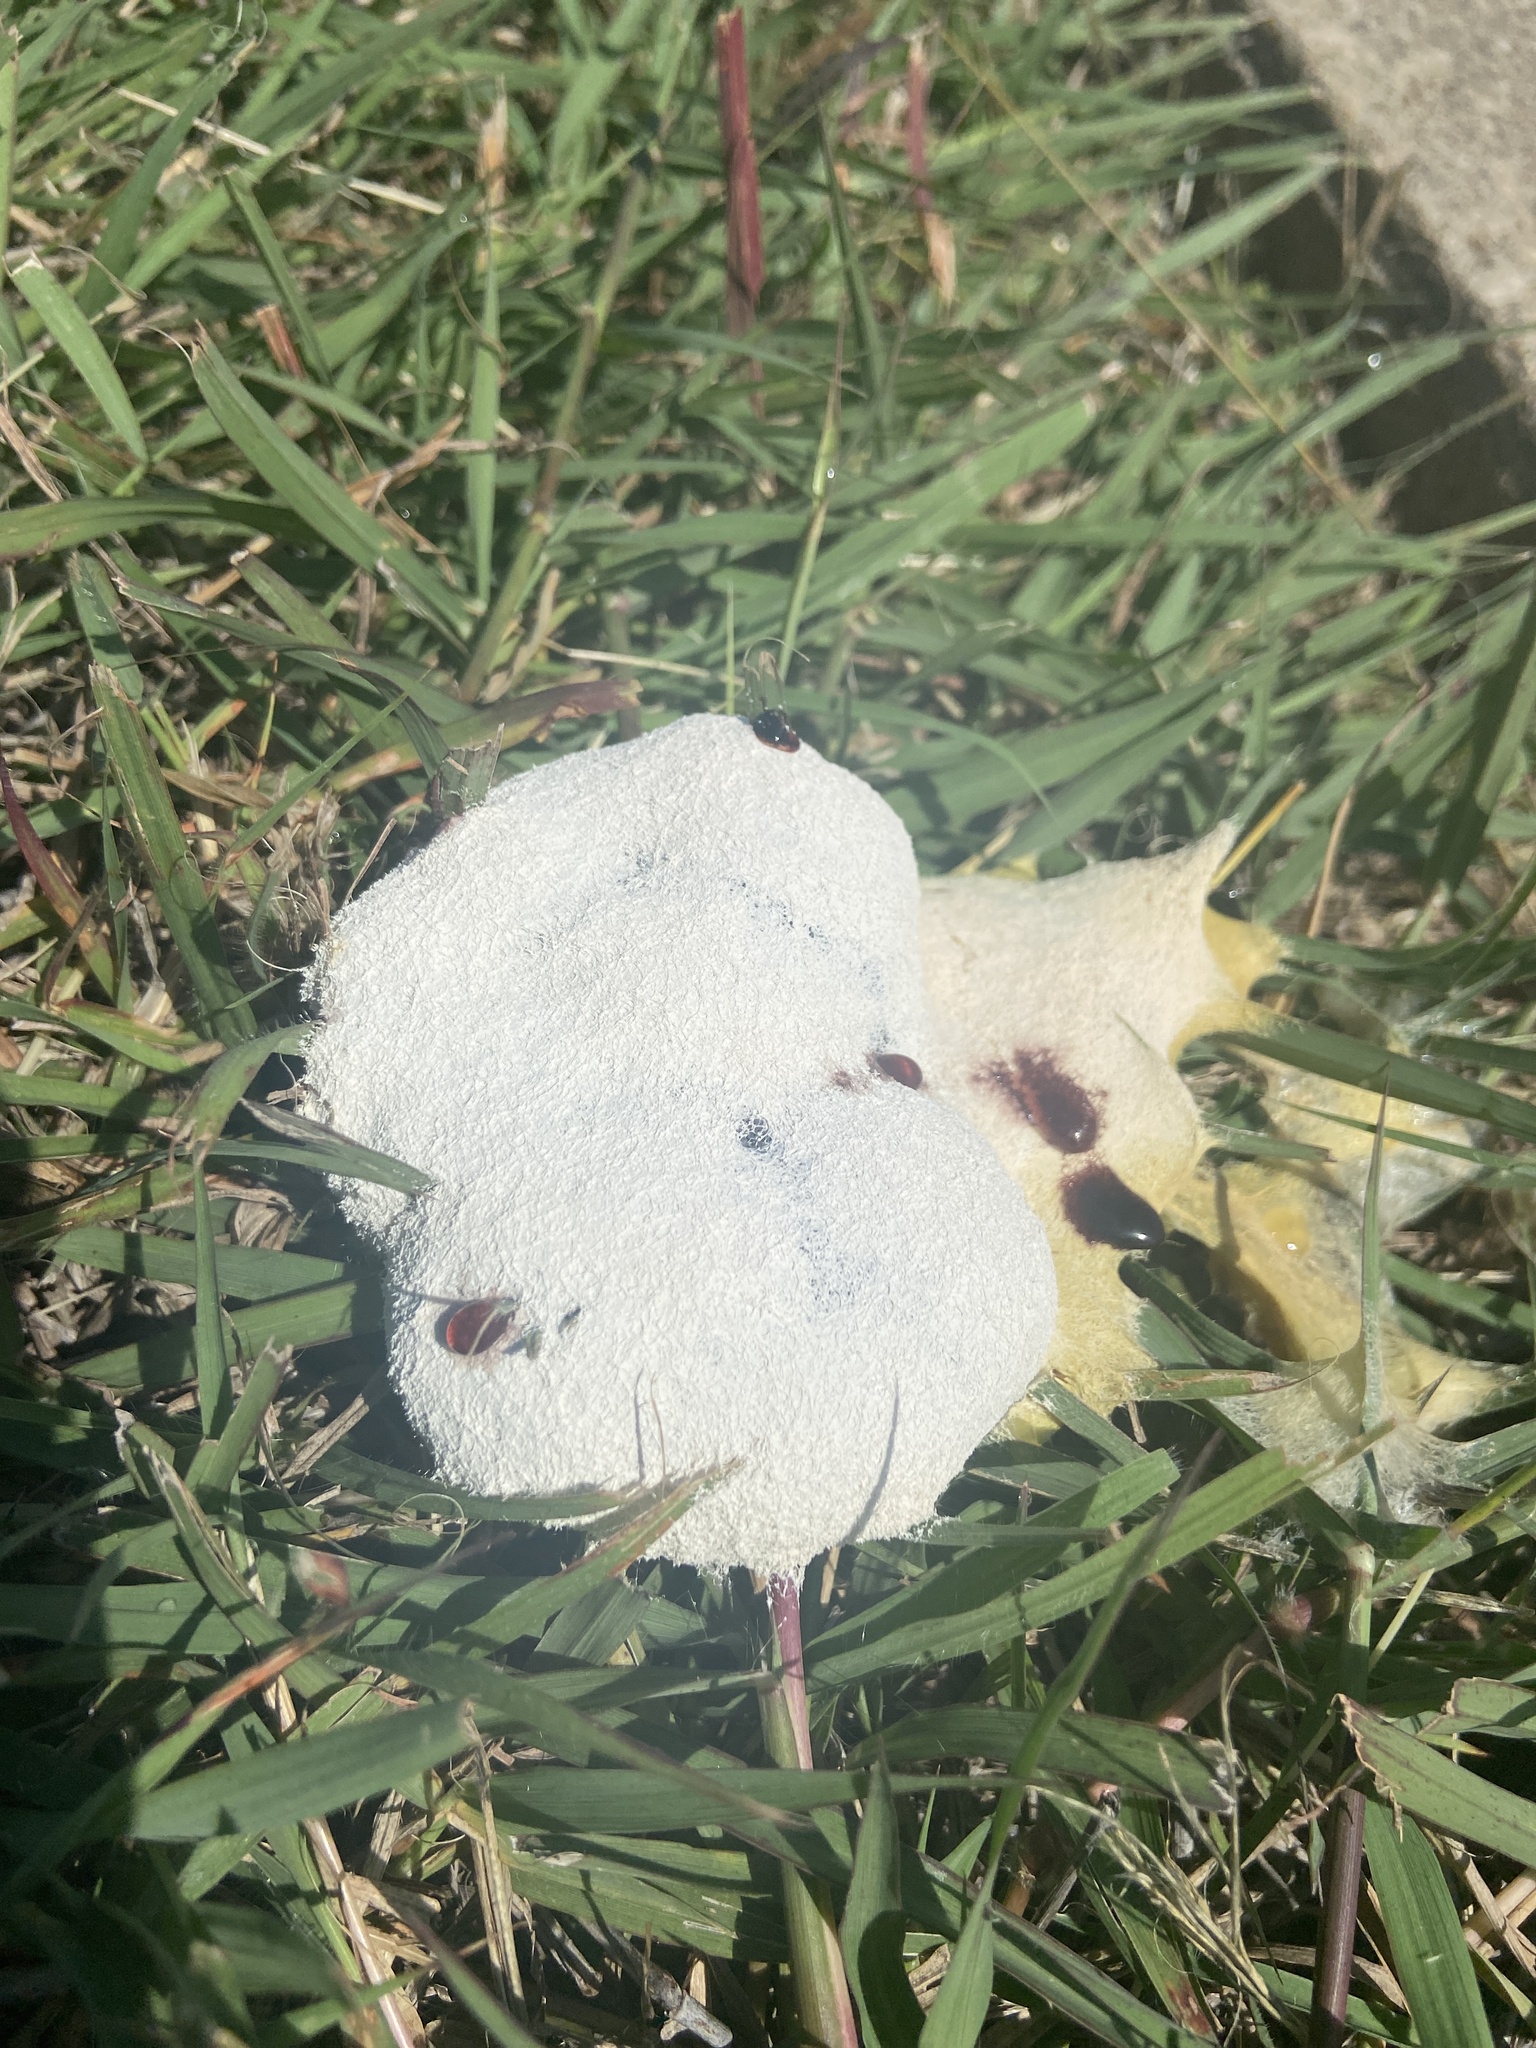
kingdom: Protozoa
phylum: Mycetozoa
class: Myxomycetes
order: Physarales
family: Physaraceae
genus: Fuligo
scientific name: Fuligo septica
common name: Dog vomit slime mold
